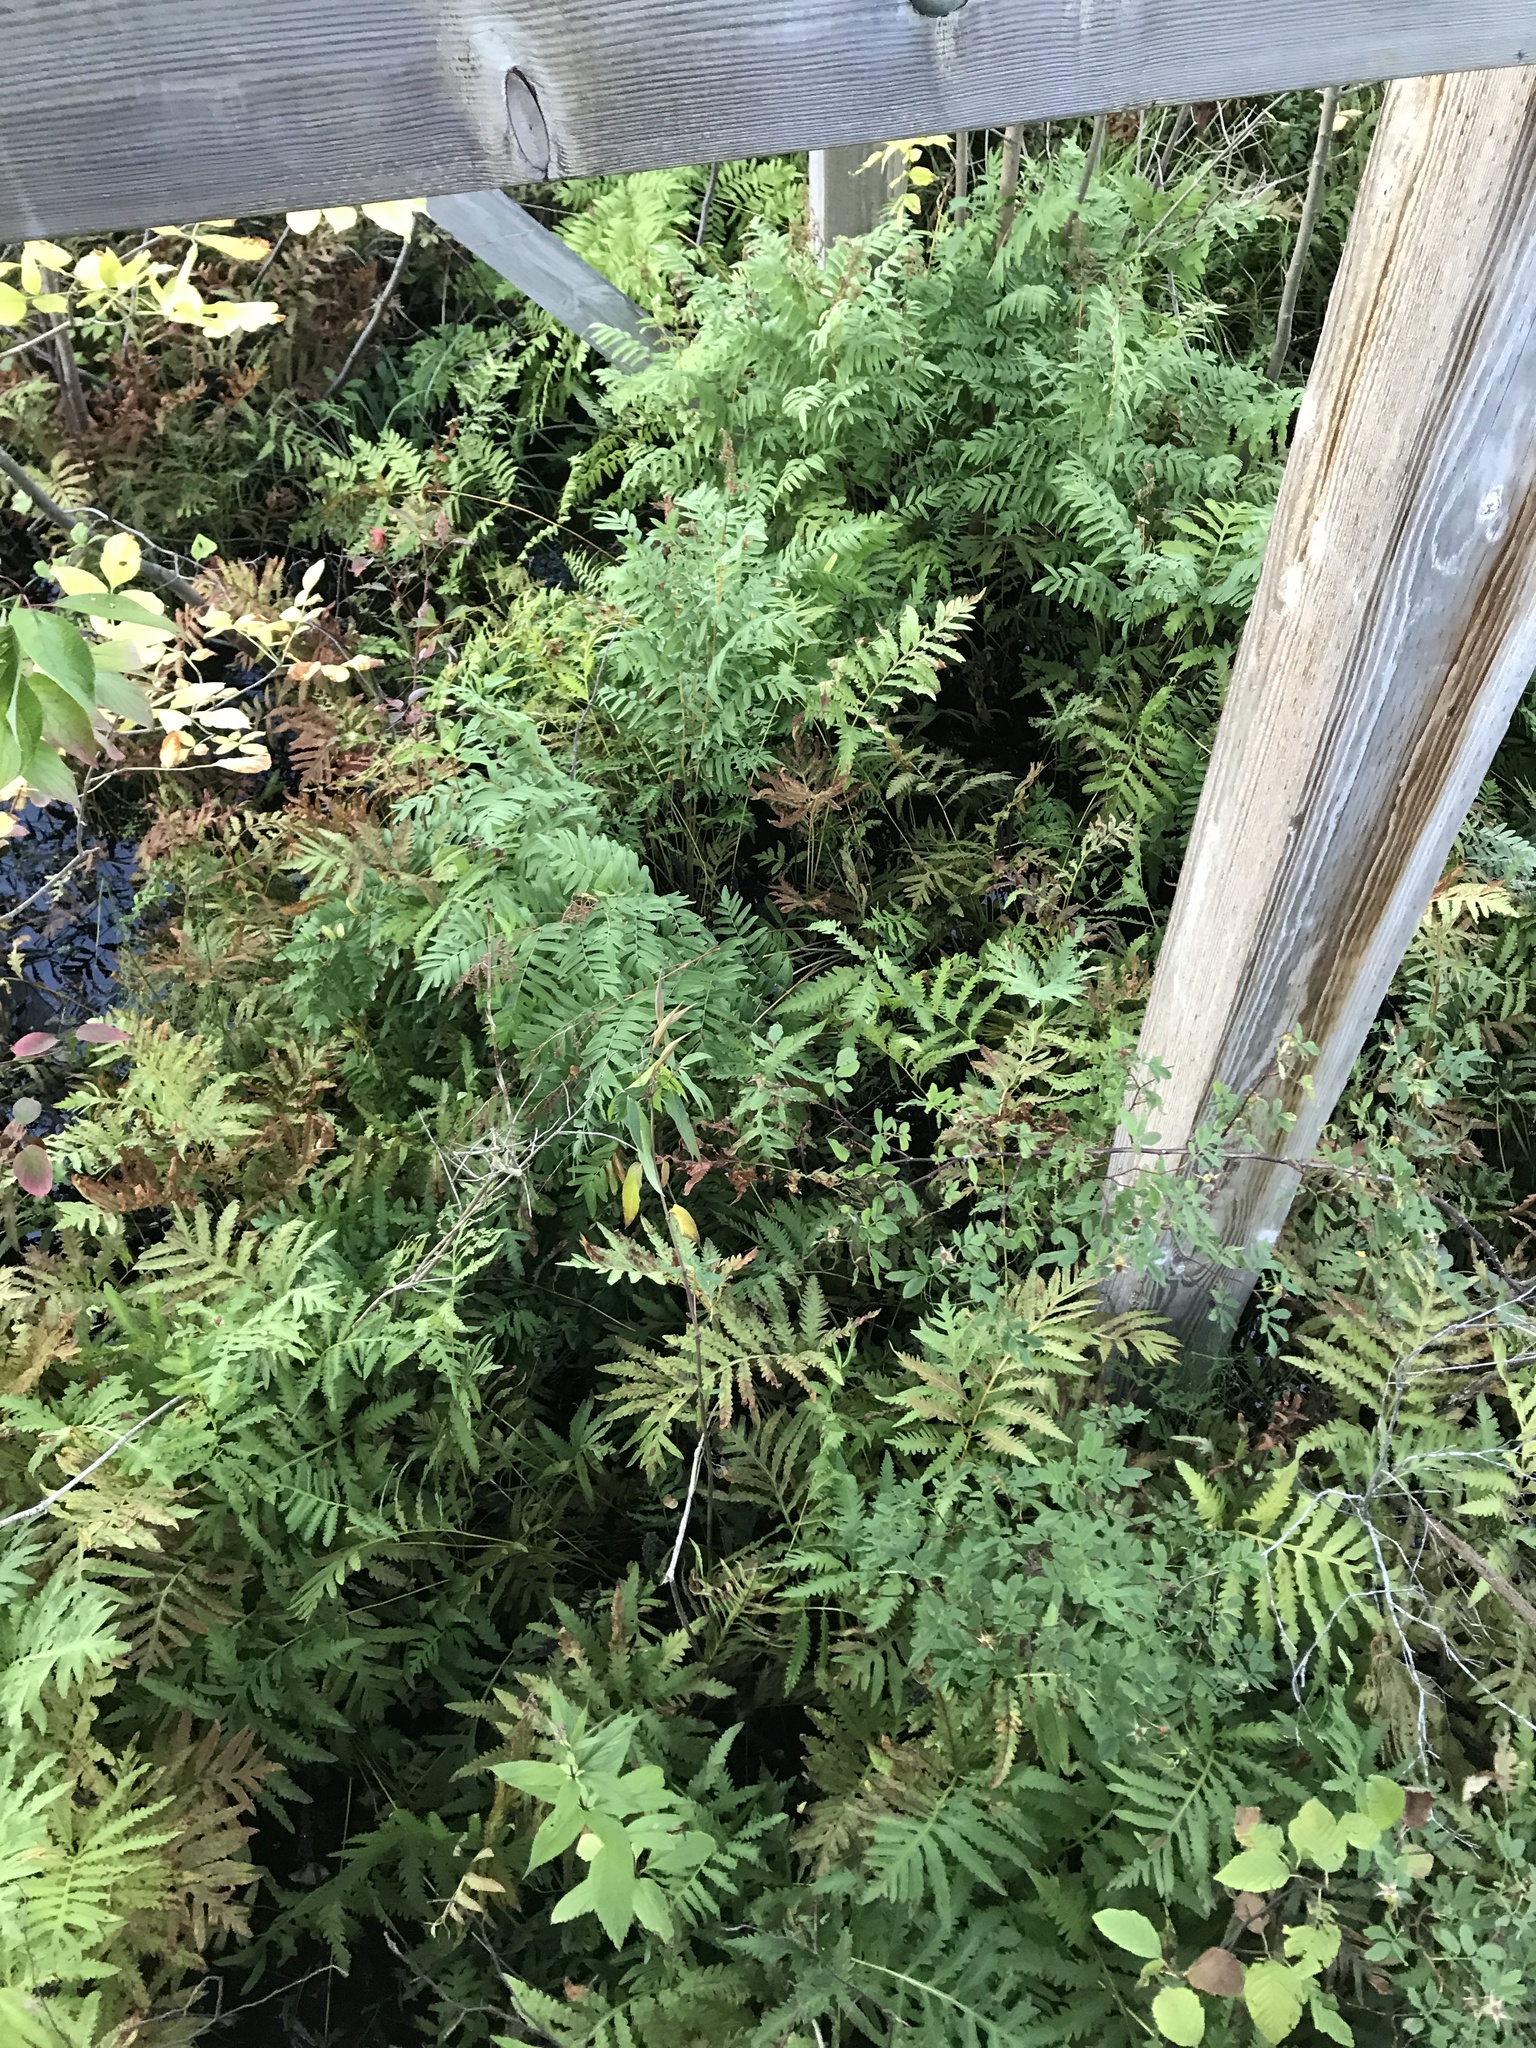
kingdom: Plantae
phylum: Tracheophyta
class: Polypodiopsida
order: Polypodiales
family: Onocleaceae
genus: Onoclea
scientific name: Onoclea sensibilis
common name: Sensitive fern
